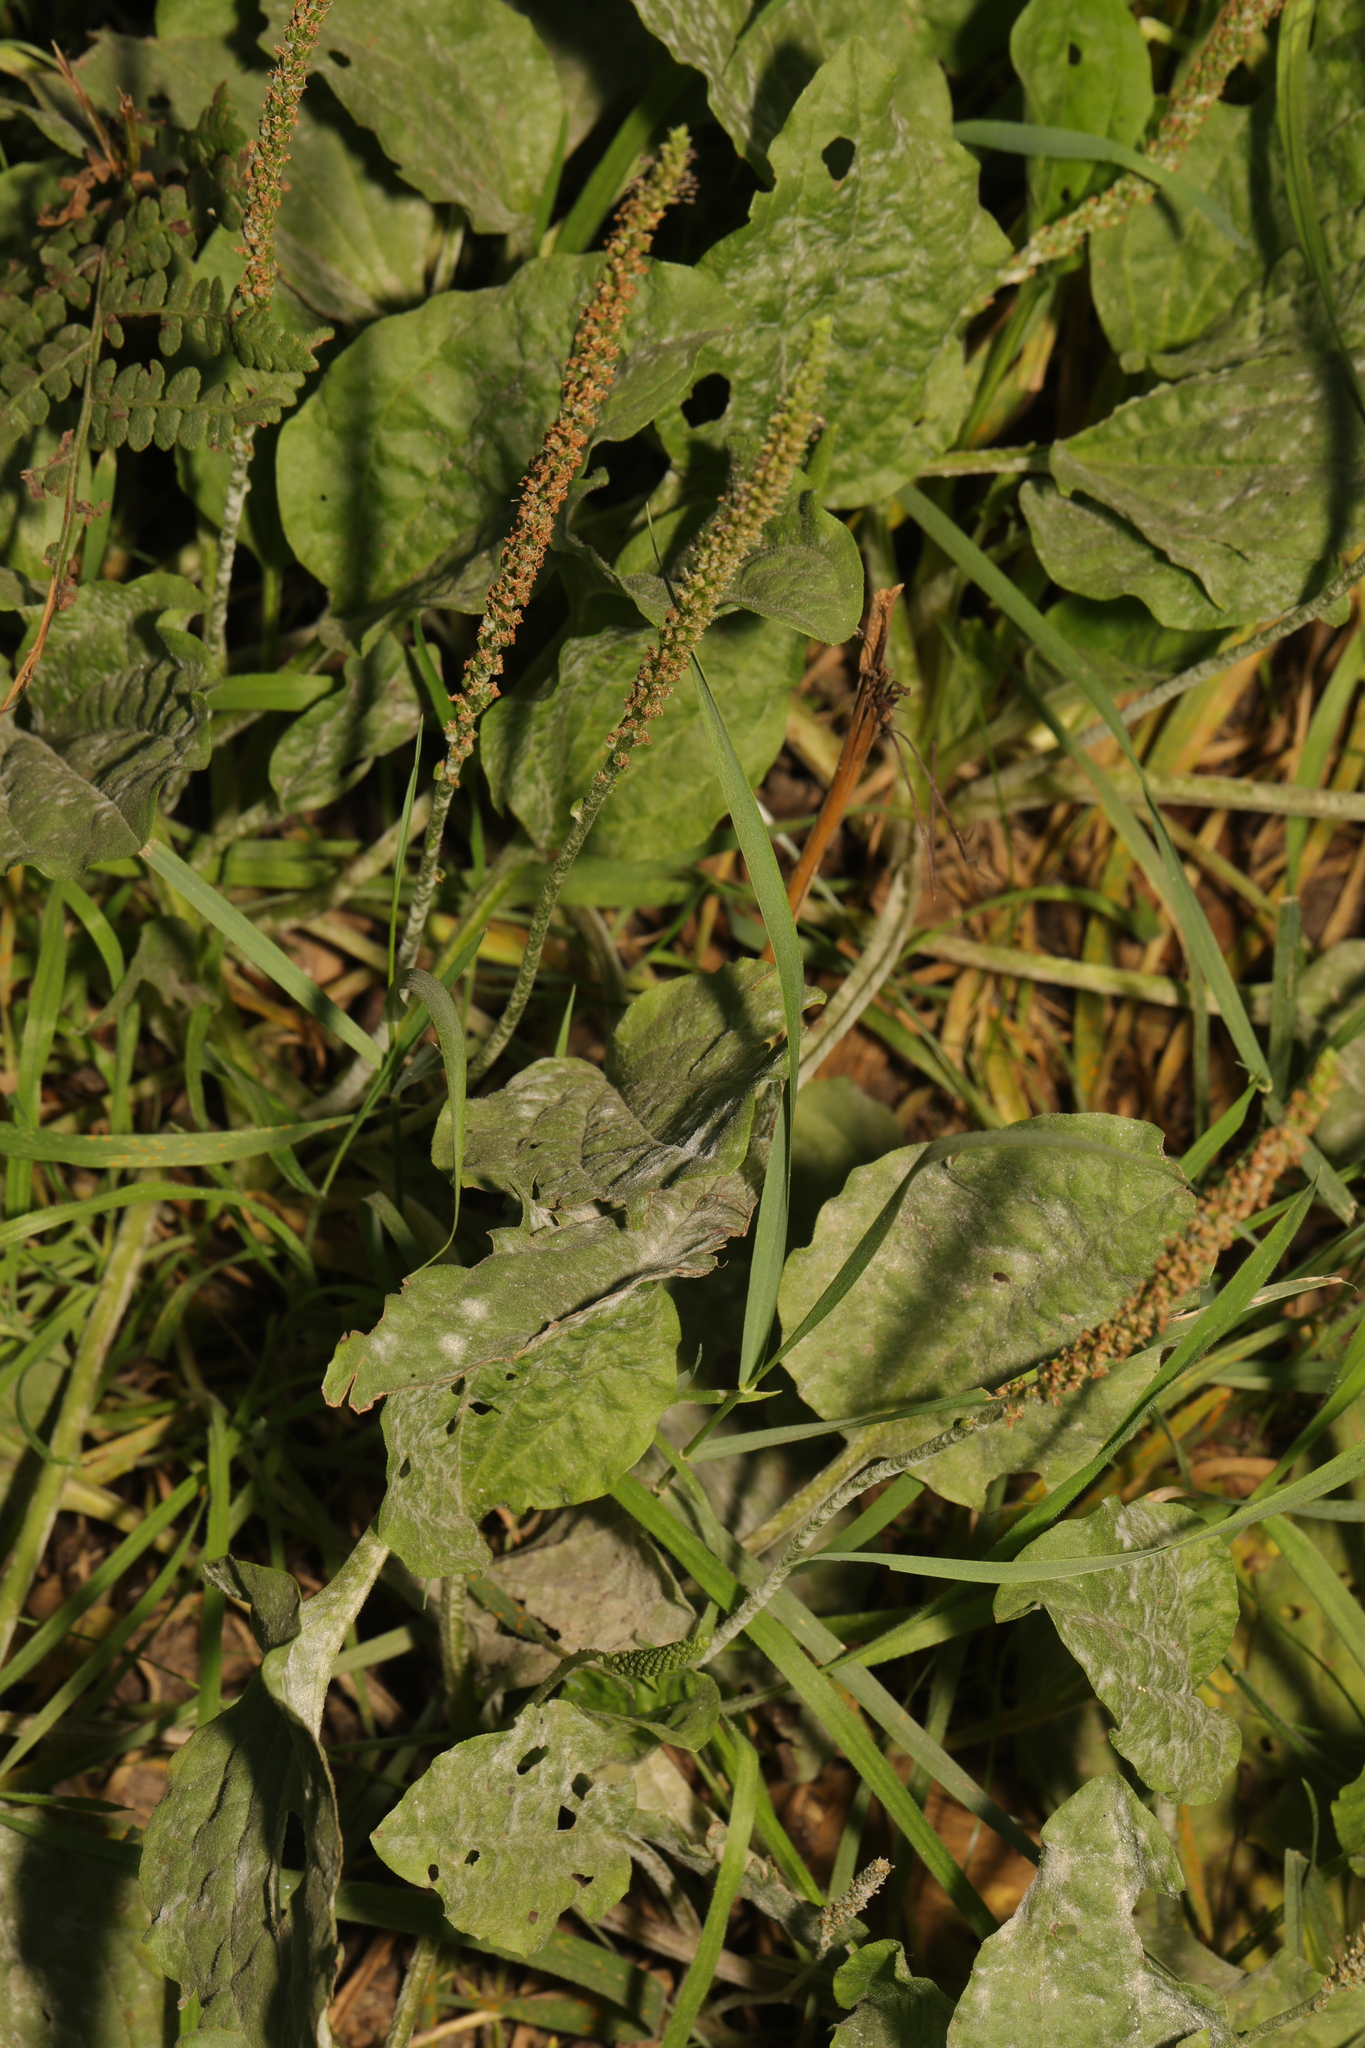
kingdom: Plantae
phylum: Tracheophyta
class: Magnoliopsida
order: Lamiales
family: Plantaginaceae
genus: Plantago
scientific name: Plantago major
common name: Common plantain
